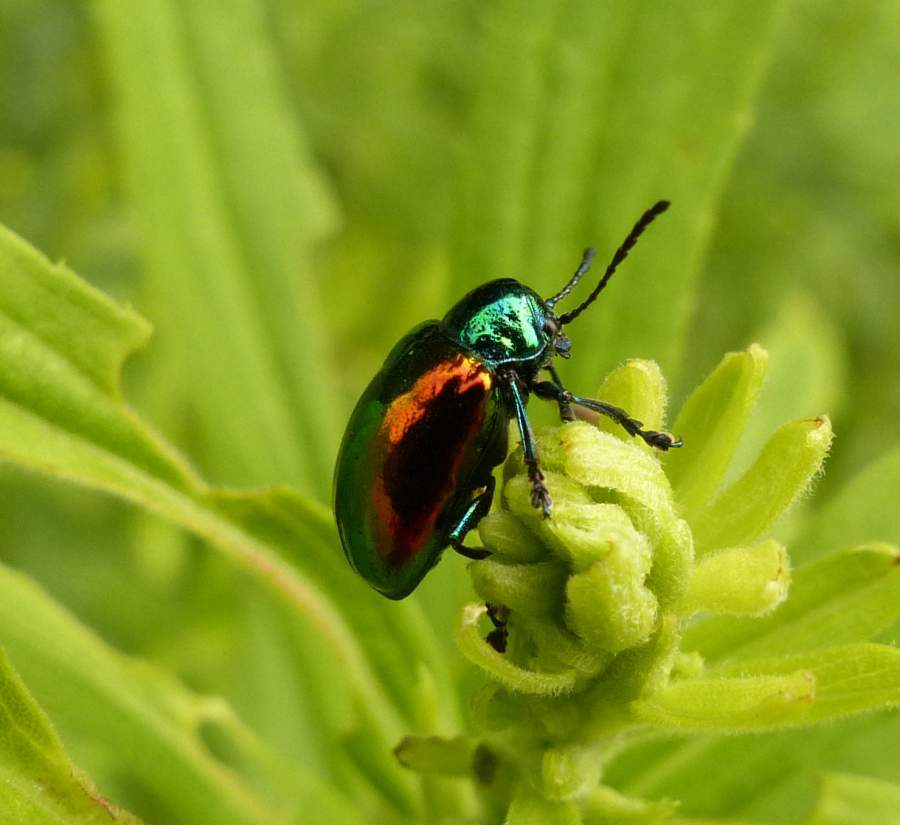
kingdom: Animalia
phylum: Arthropoda
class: Insecta
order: Coleoptera
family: Chrysomelidae
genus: Chrysochus
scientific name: Chrysochus auratus
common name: Dogbane leaf beetle
